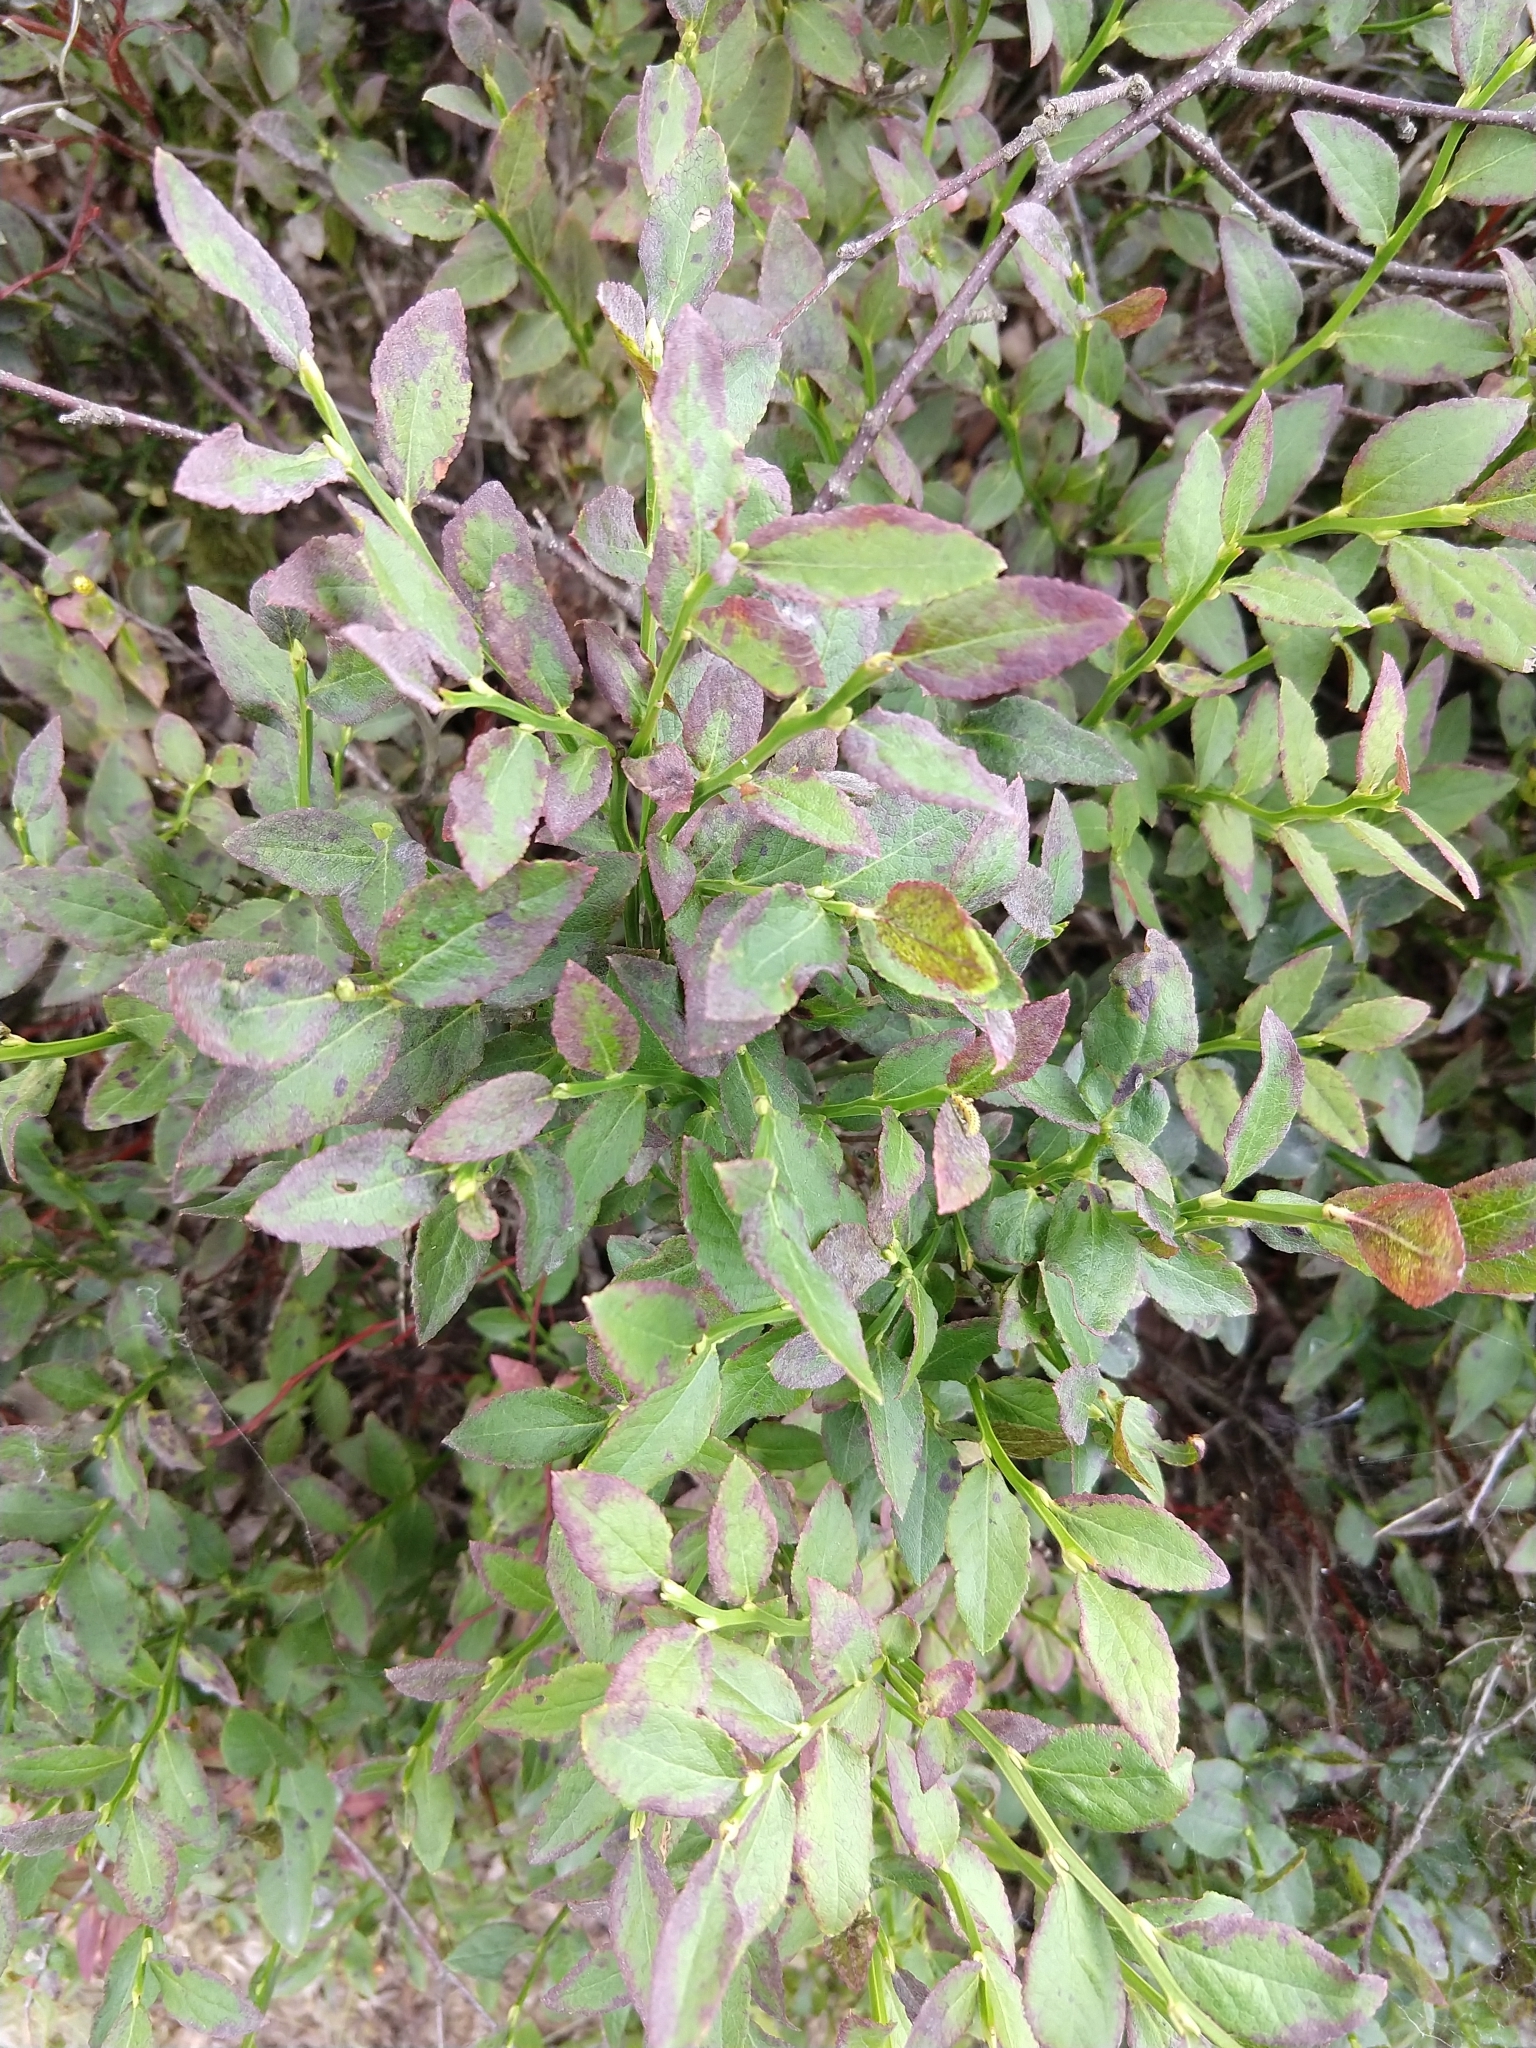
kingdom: Plantae
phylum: Tracheophyta
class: Magnoliopsida
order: Ericales
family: Ericaceae
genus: Vaccinium
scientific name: Vaccinium myrtillus
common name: Bilberry
